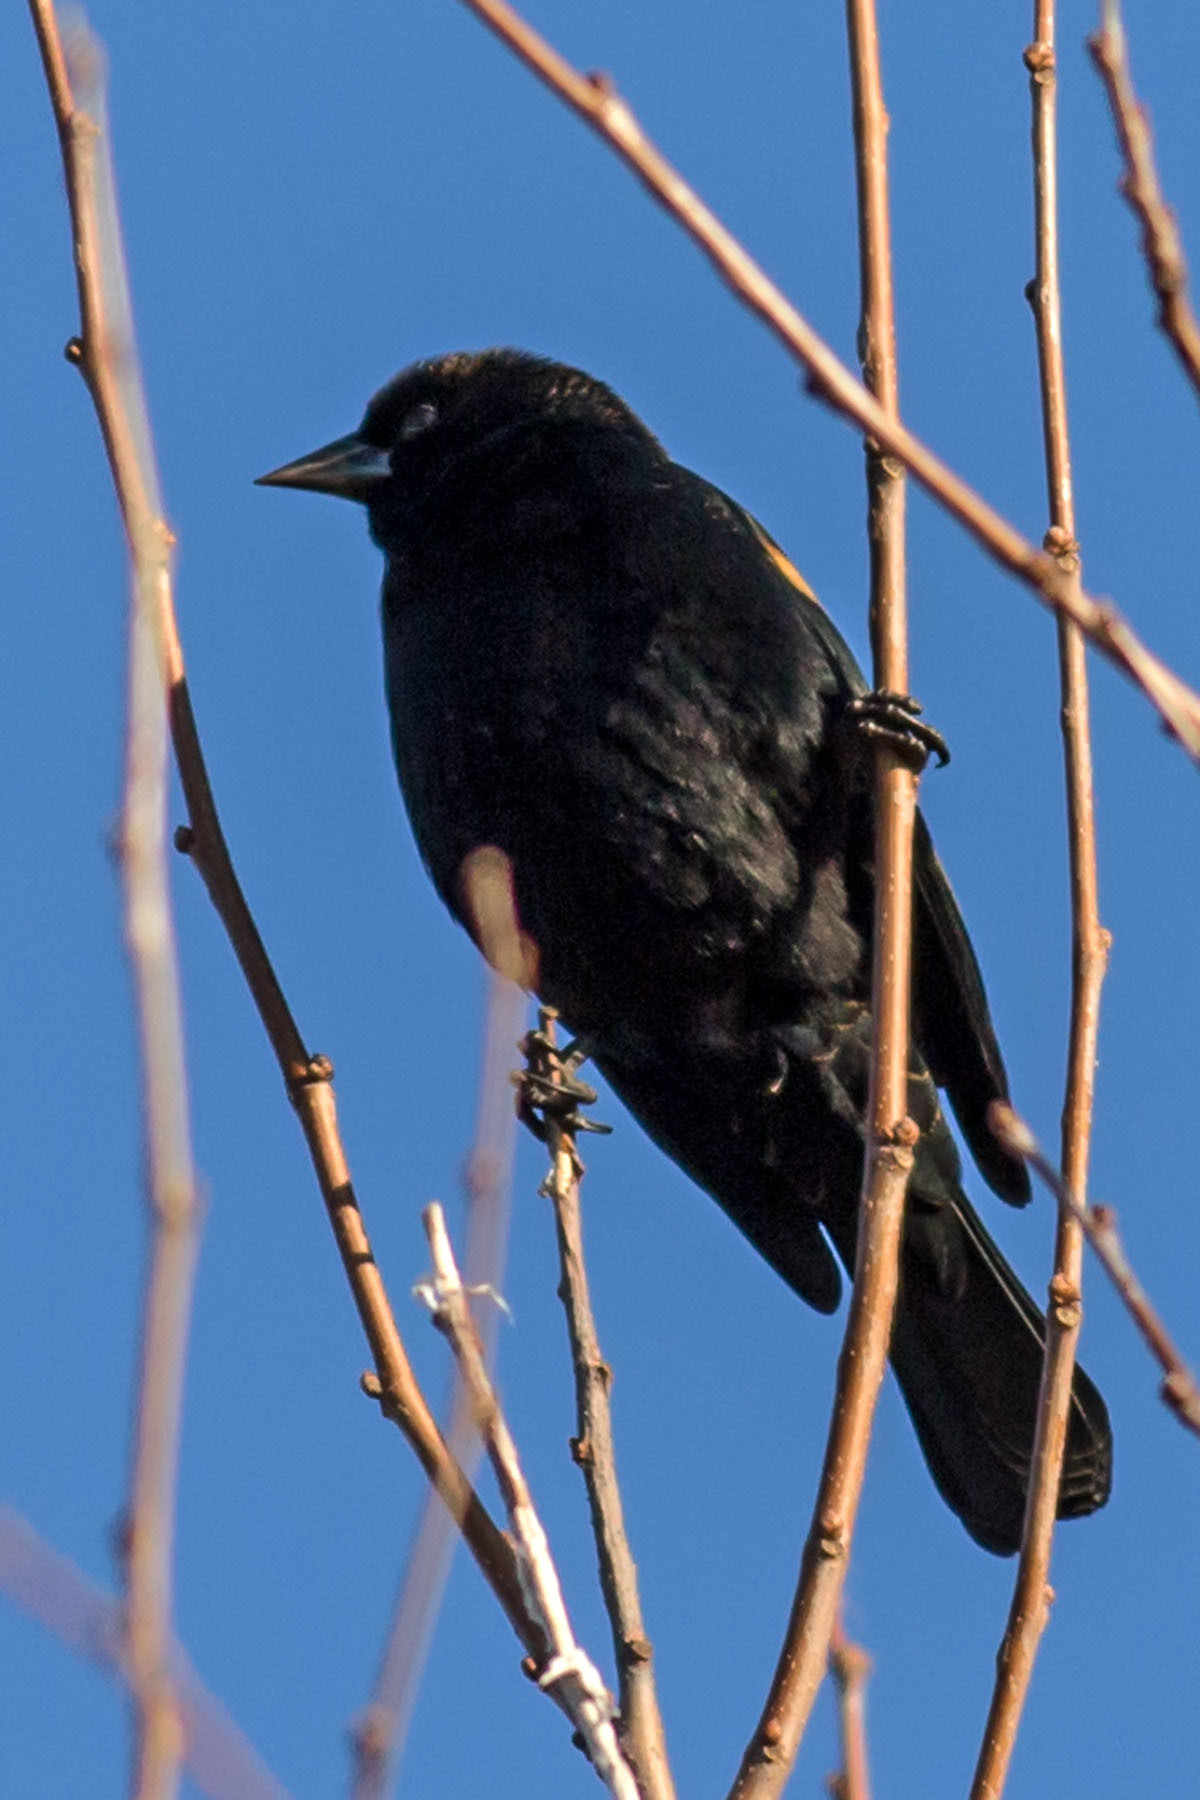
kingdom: Animalia
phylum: Chordata
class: Aves
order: Passeriformes
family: Icteridae
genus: Agelaius
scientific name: Agelaius phoeniceus
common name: Red-winged blackbird
